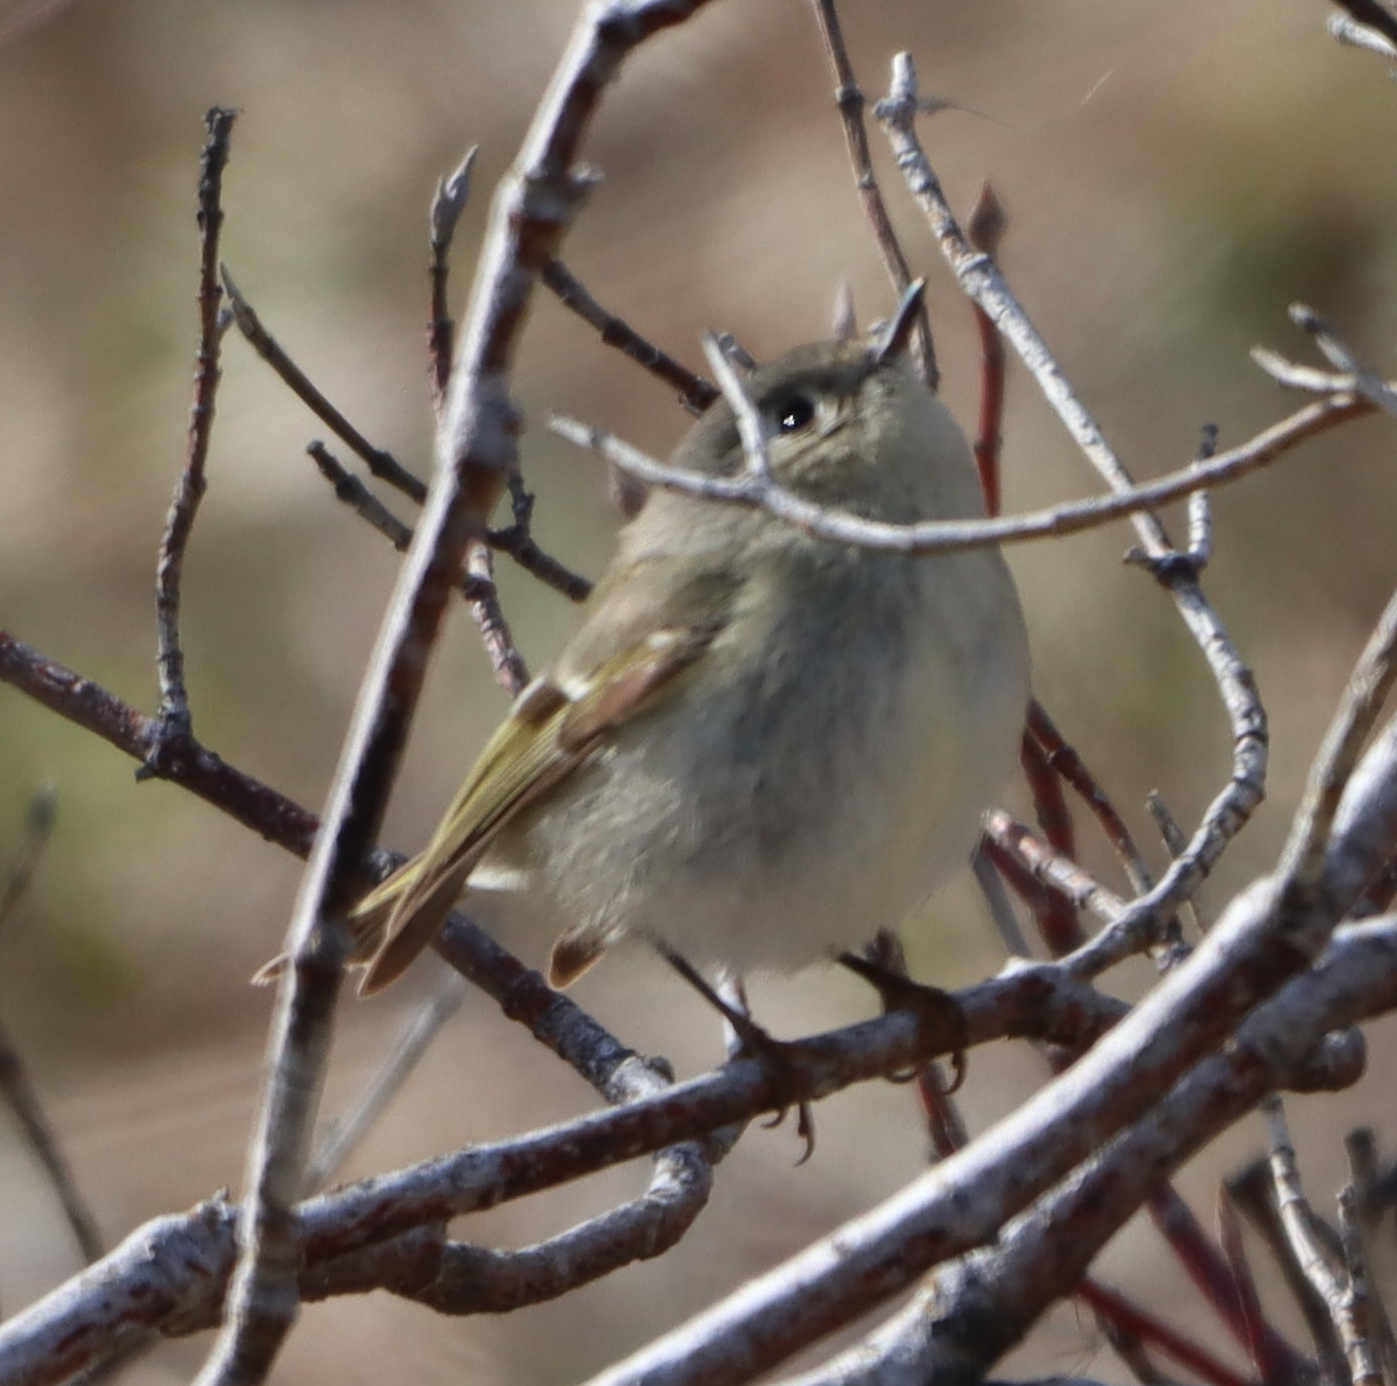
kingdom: Animalia
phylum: Chordata
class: Aves
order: Passeriformes
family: Regulidae
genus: Regulus
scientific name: Regulus calendula
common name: Ruby-crowned kinglet
